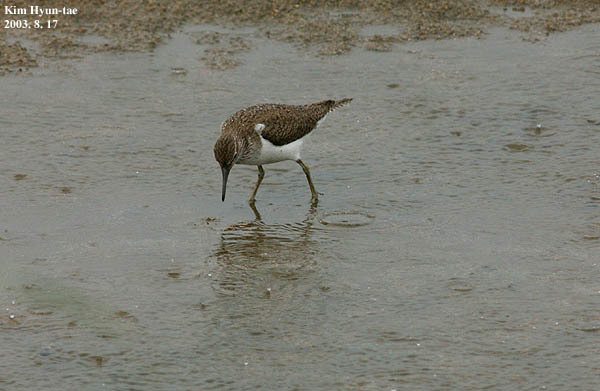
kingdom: Animalia
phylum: Chordata
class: Aves
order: Charadriiformes
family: Scolopacidae
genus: Actitis
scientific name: Actitis hypoleucos
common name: Common sandpiper
